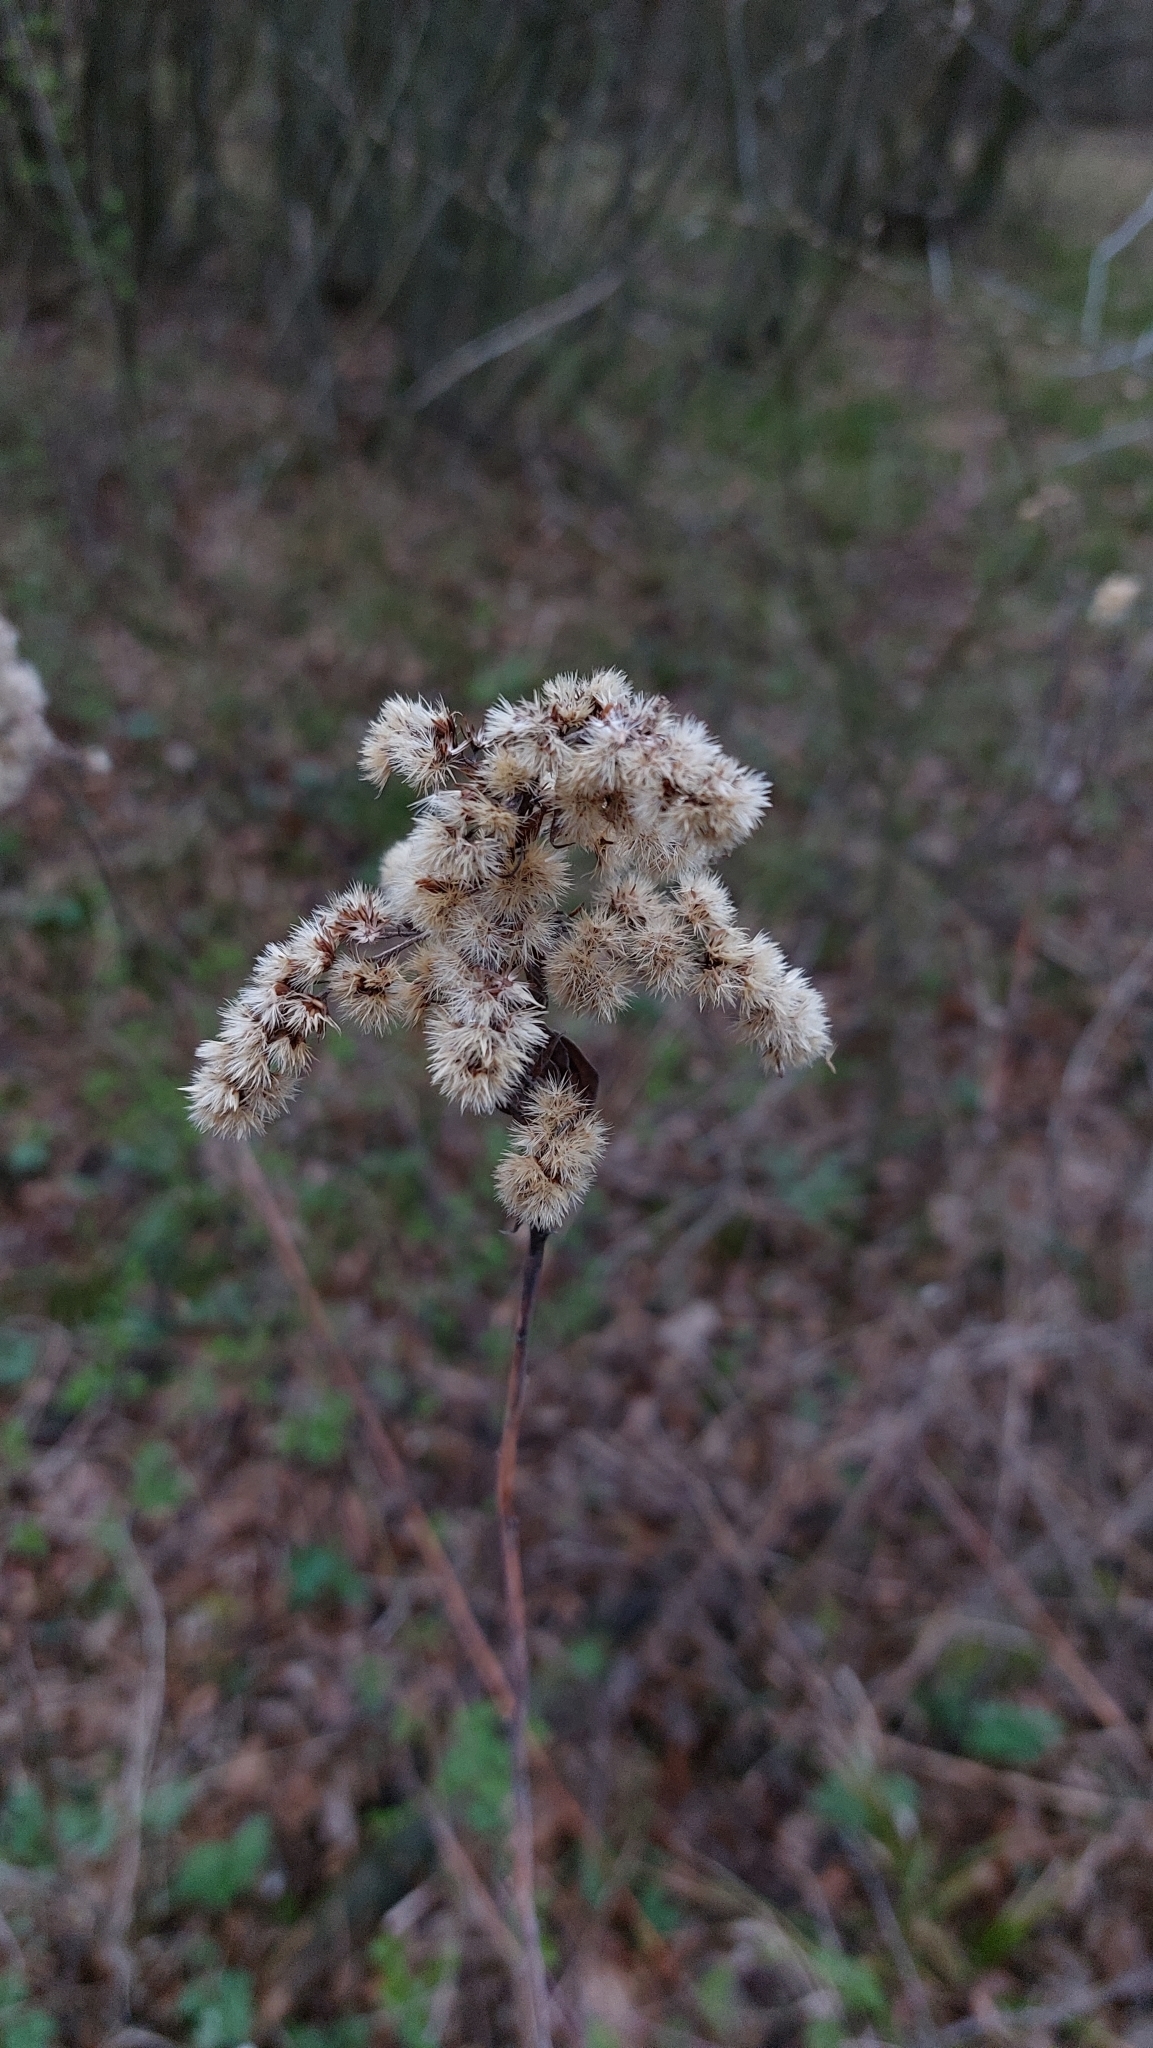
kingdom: Plantae
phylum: Tracheophyta
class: Magnoliopsida
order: Asterales
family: Asteraceae
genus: Solidago
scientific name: Solidago gigantea
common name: Giant goldenrod
